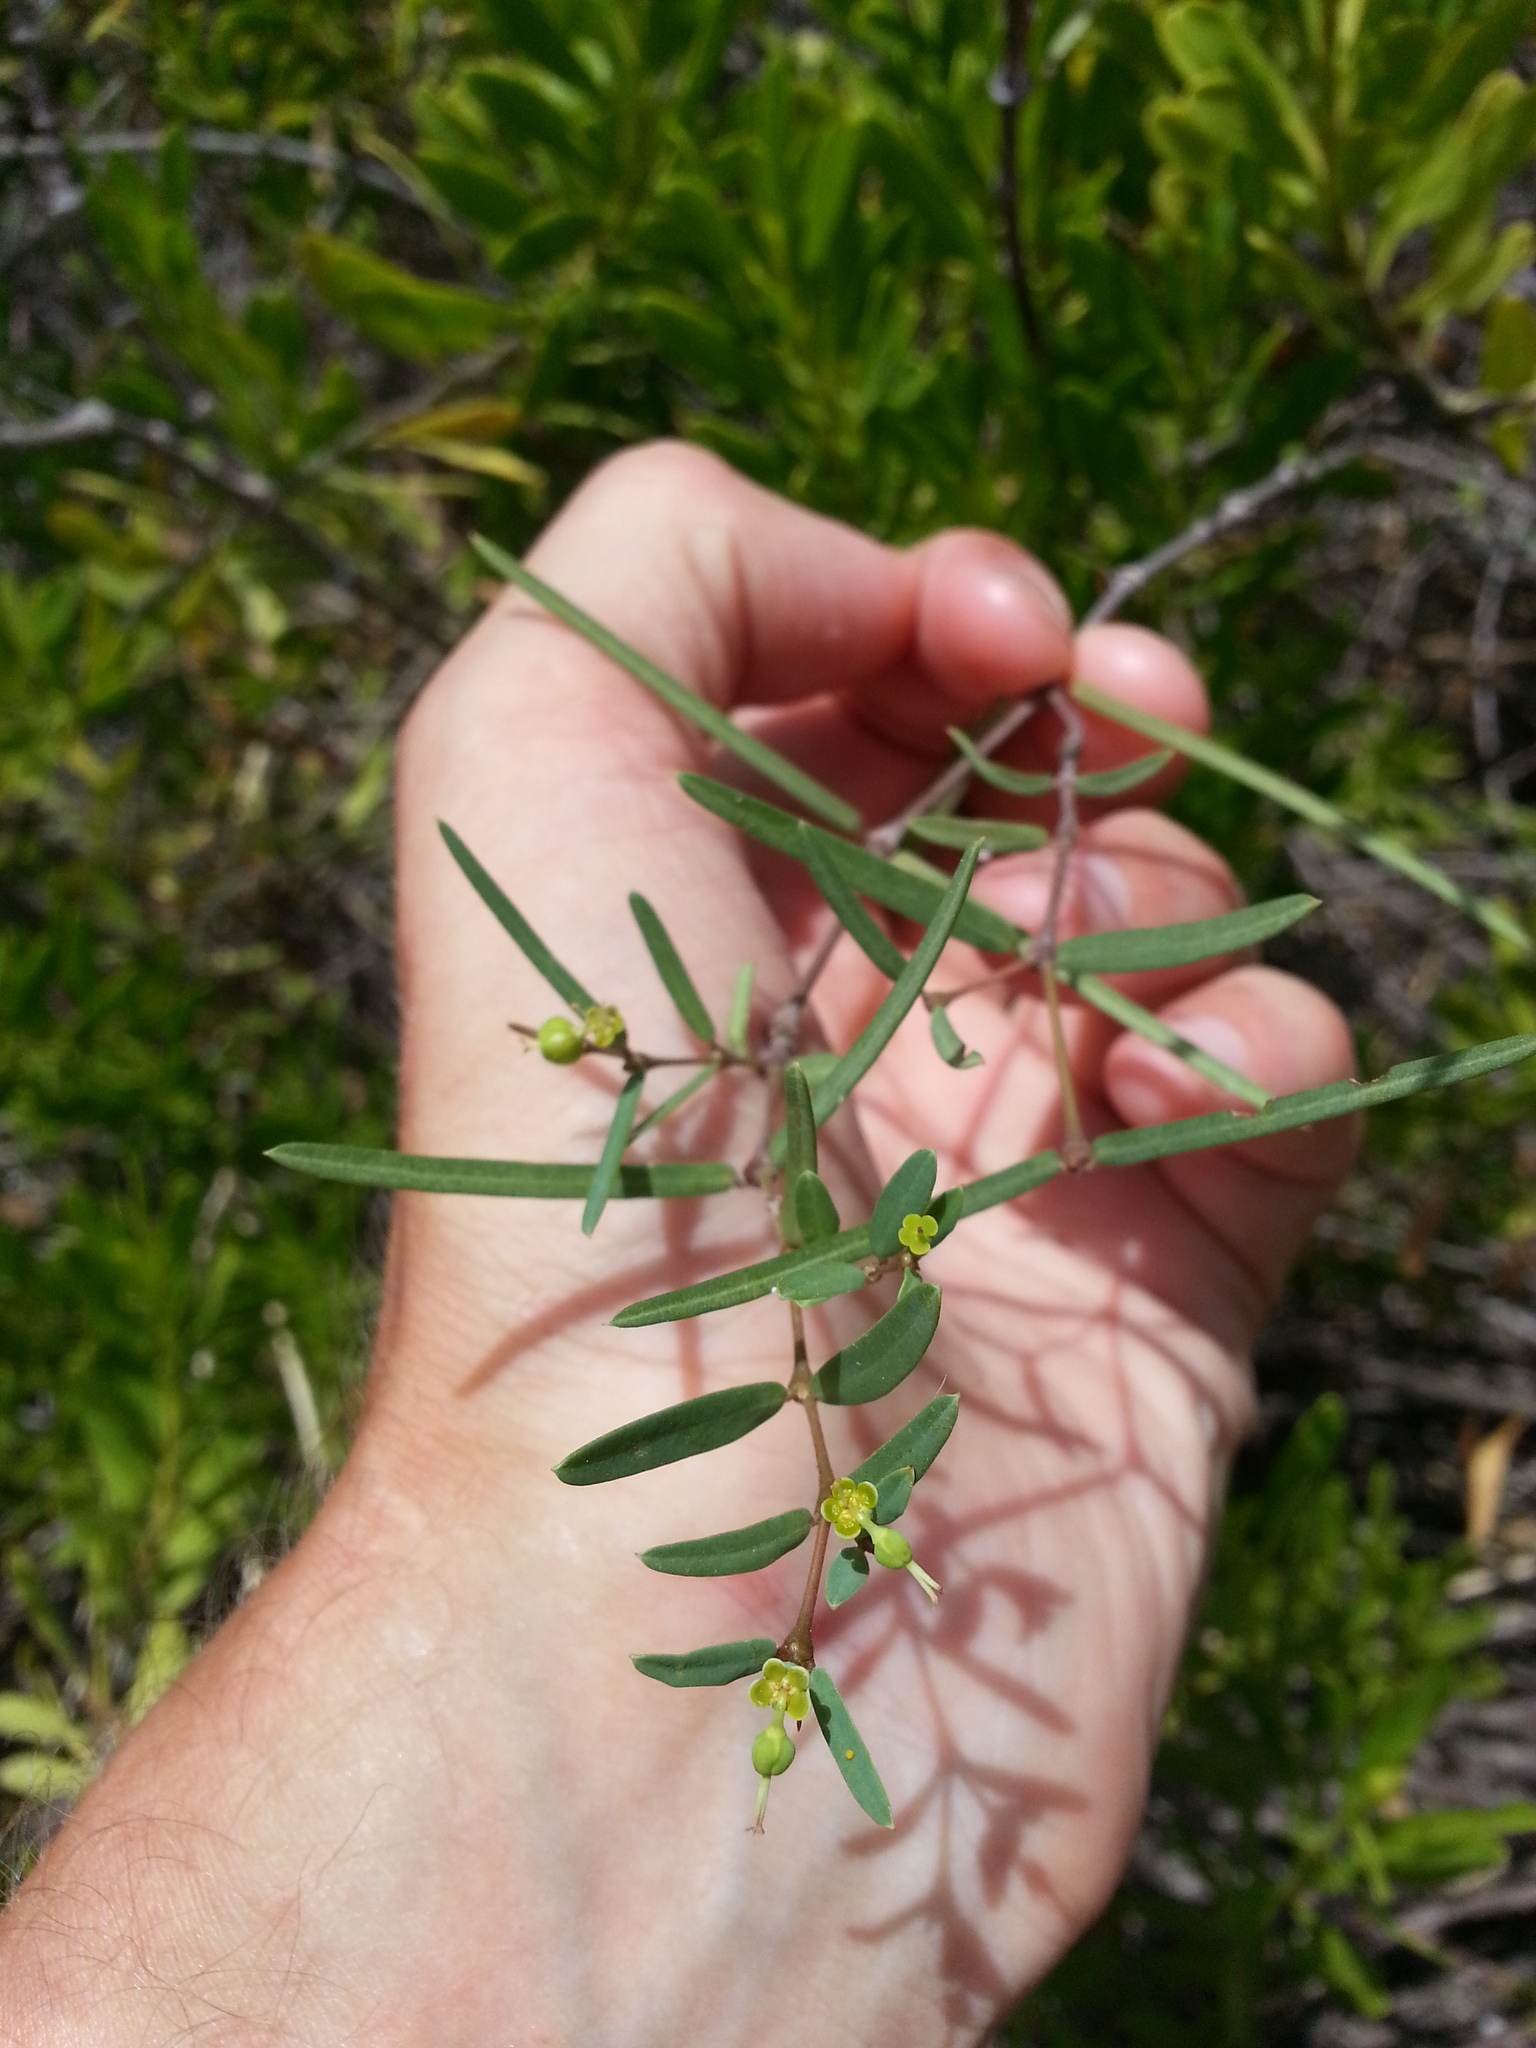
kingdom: Plantae
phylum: Tracheophyta
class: Magnoliopsida
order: Malpighiales
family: Euphorbiaceae
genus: Euphorbia
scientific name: Euphorbia articulata
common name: Jointed sandmat
